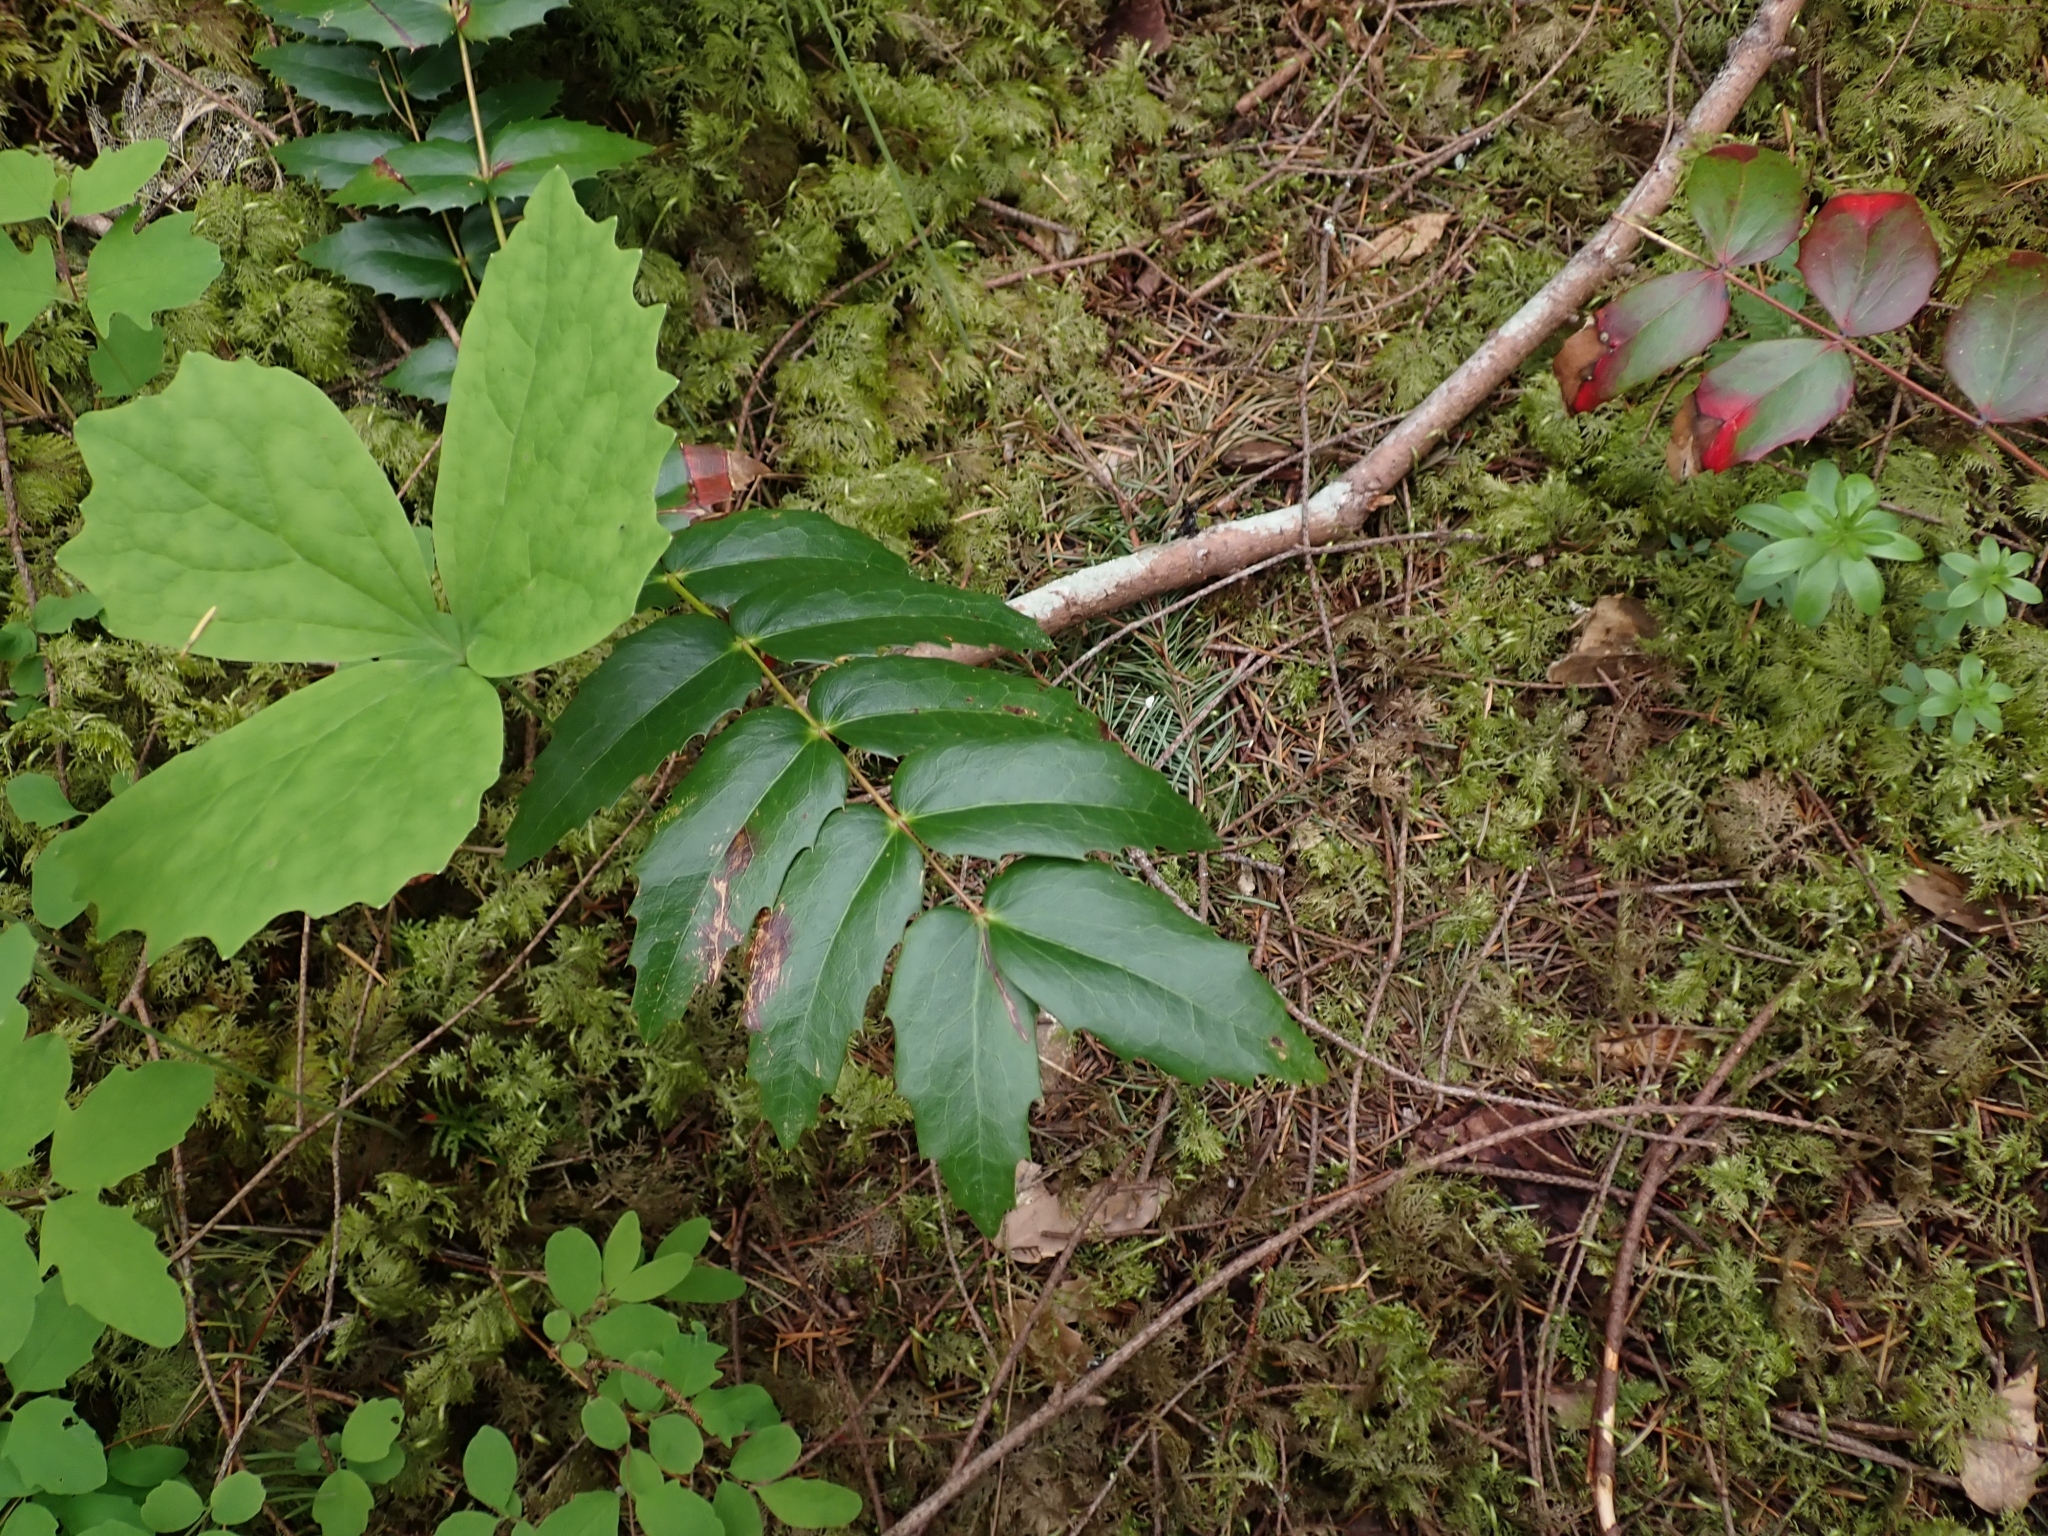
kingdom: Plantae
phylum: Tracheophyta
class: Magnoliopsida
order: Ranunculales
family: Berberidaceae
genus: Mahonia
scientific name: Mahonia nervosa
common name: Cascade oregon-grape
